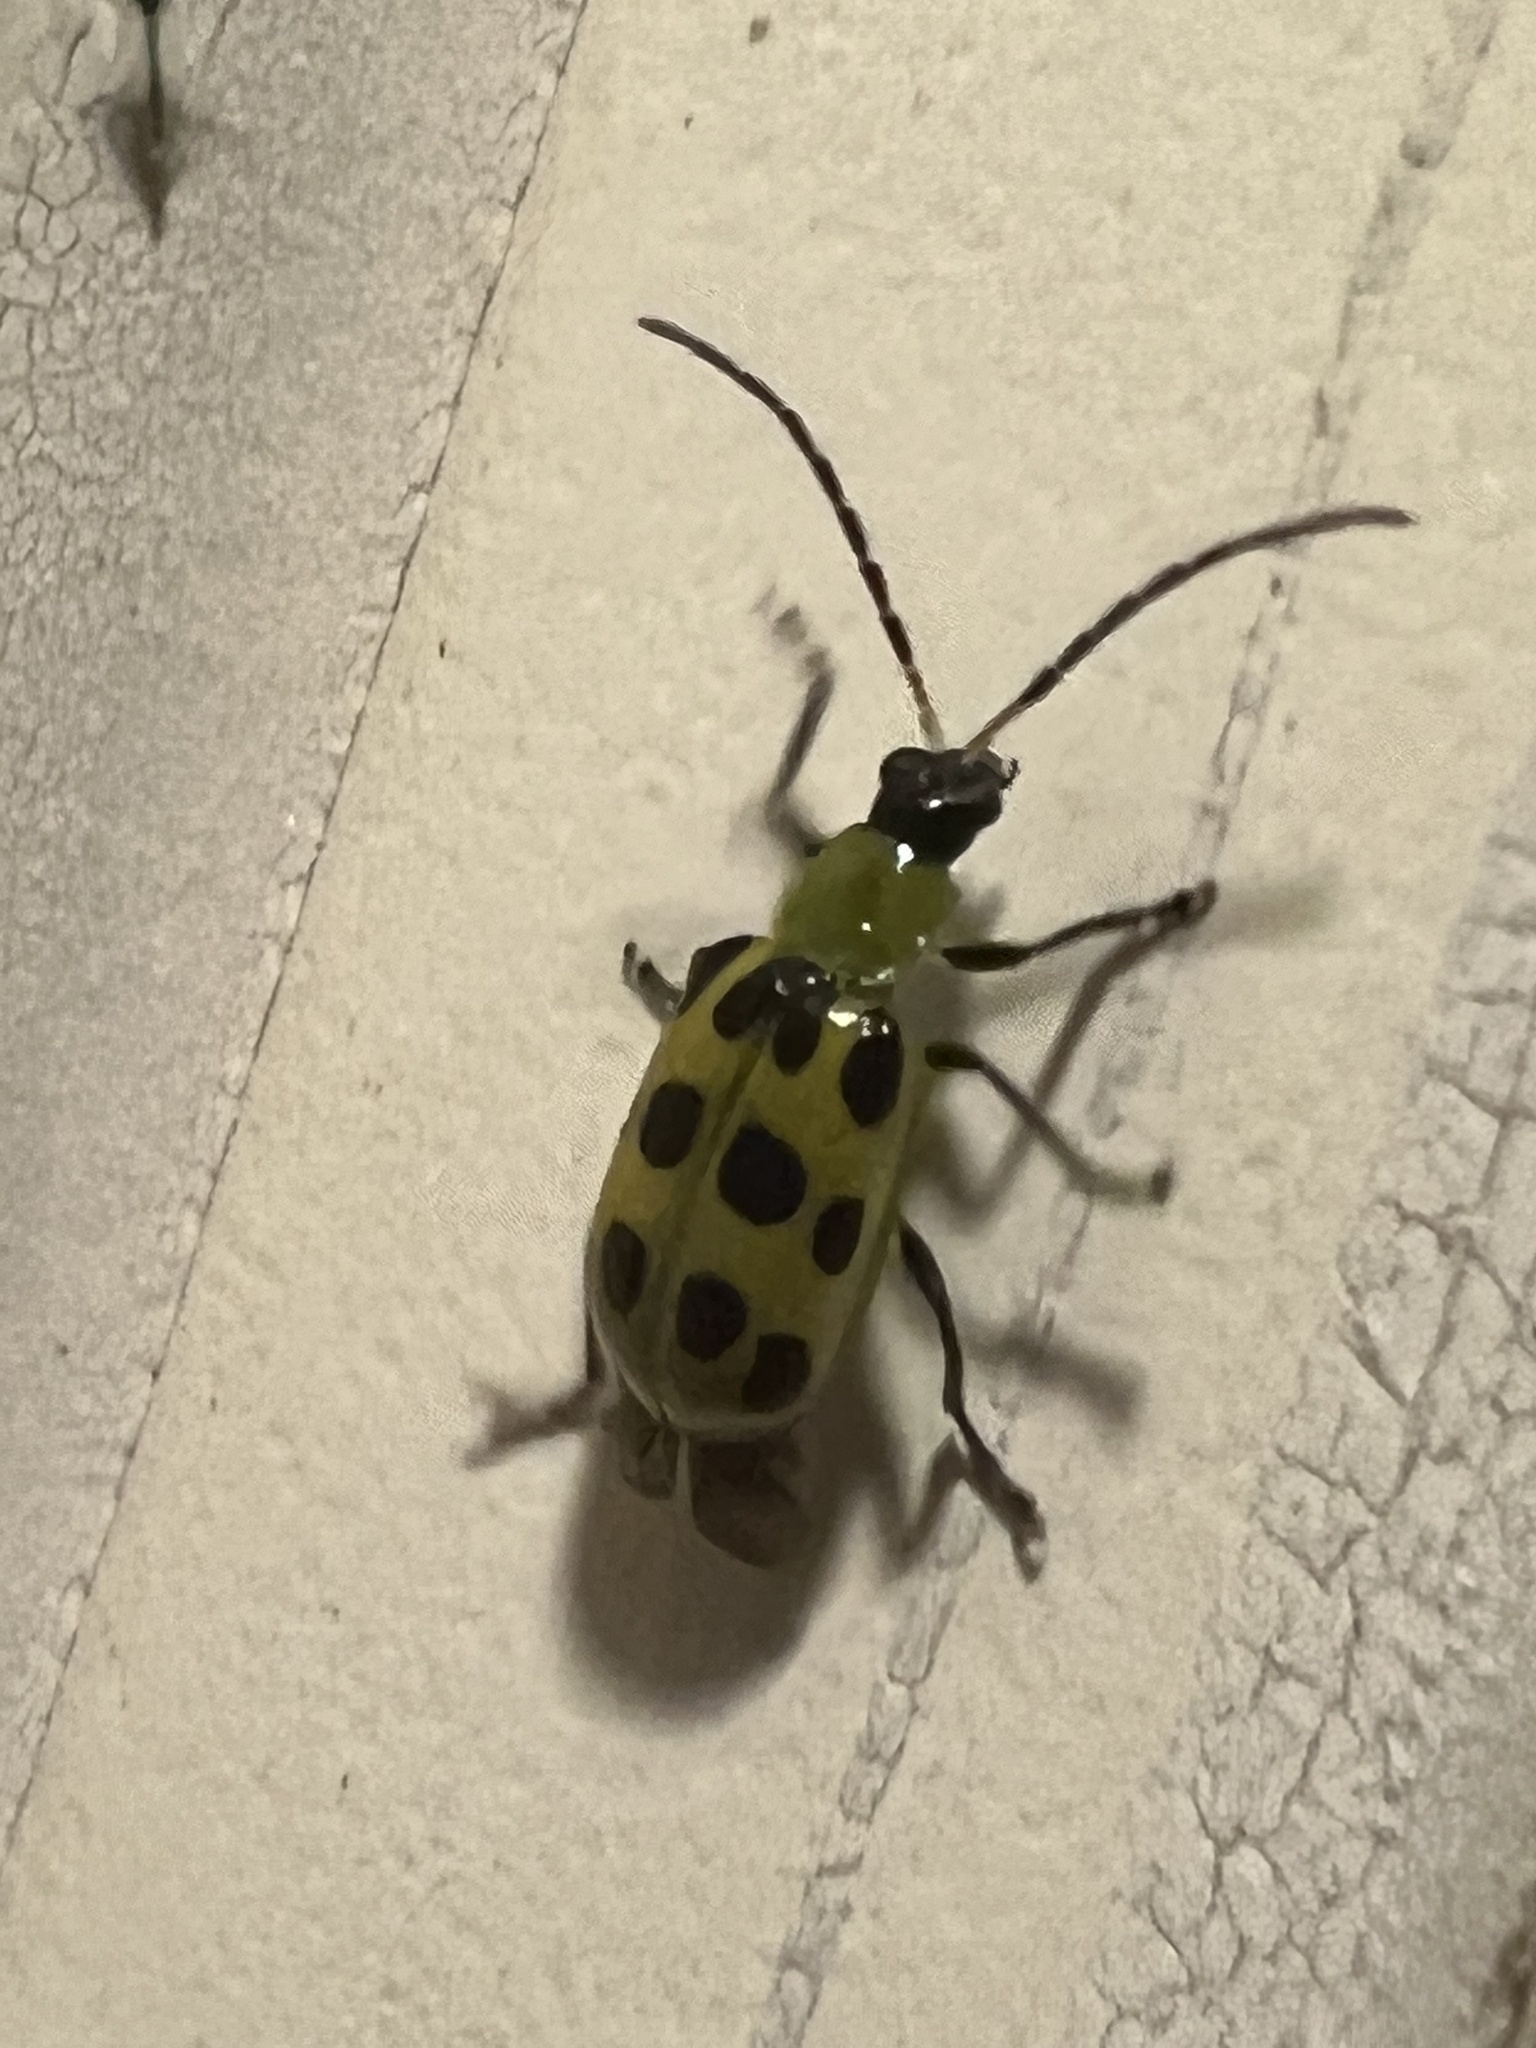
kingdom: Animalia
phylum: Arthropoda
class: Insecta
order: Coleoptera
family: Chrysomelidae
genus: Diabrotica
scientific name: Diabrotica undecimpunctata
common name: Spotted cucumber beetle
